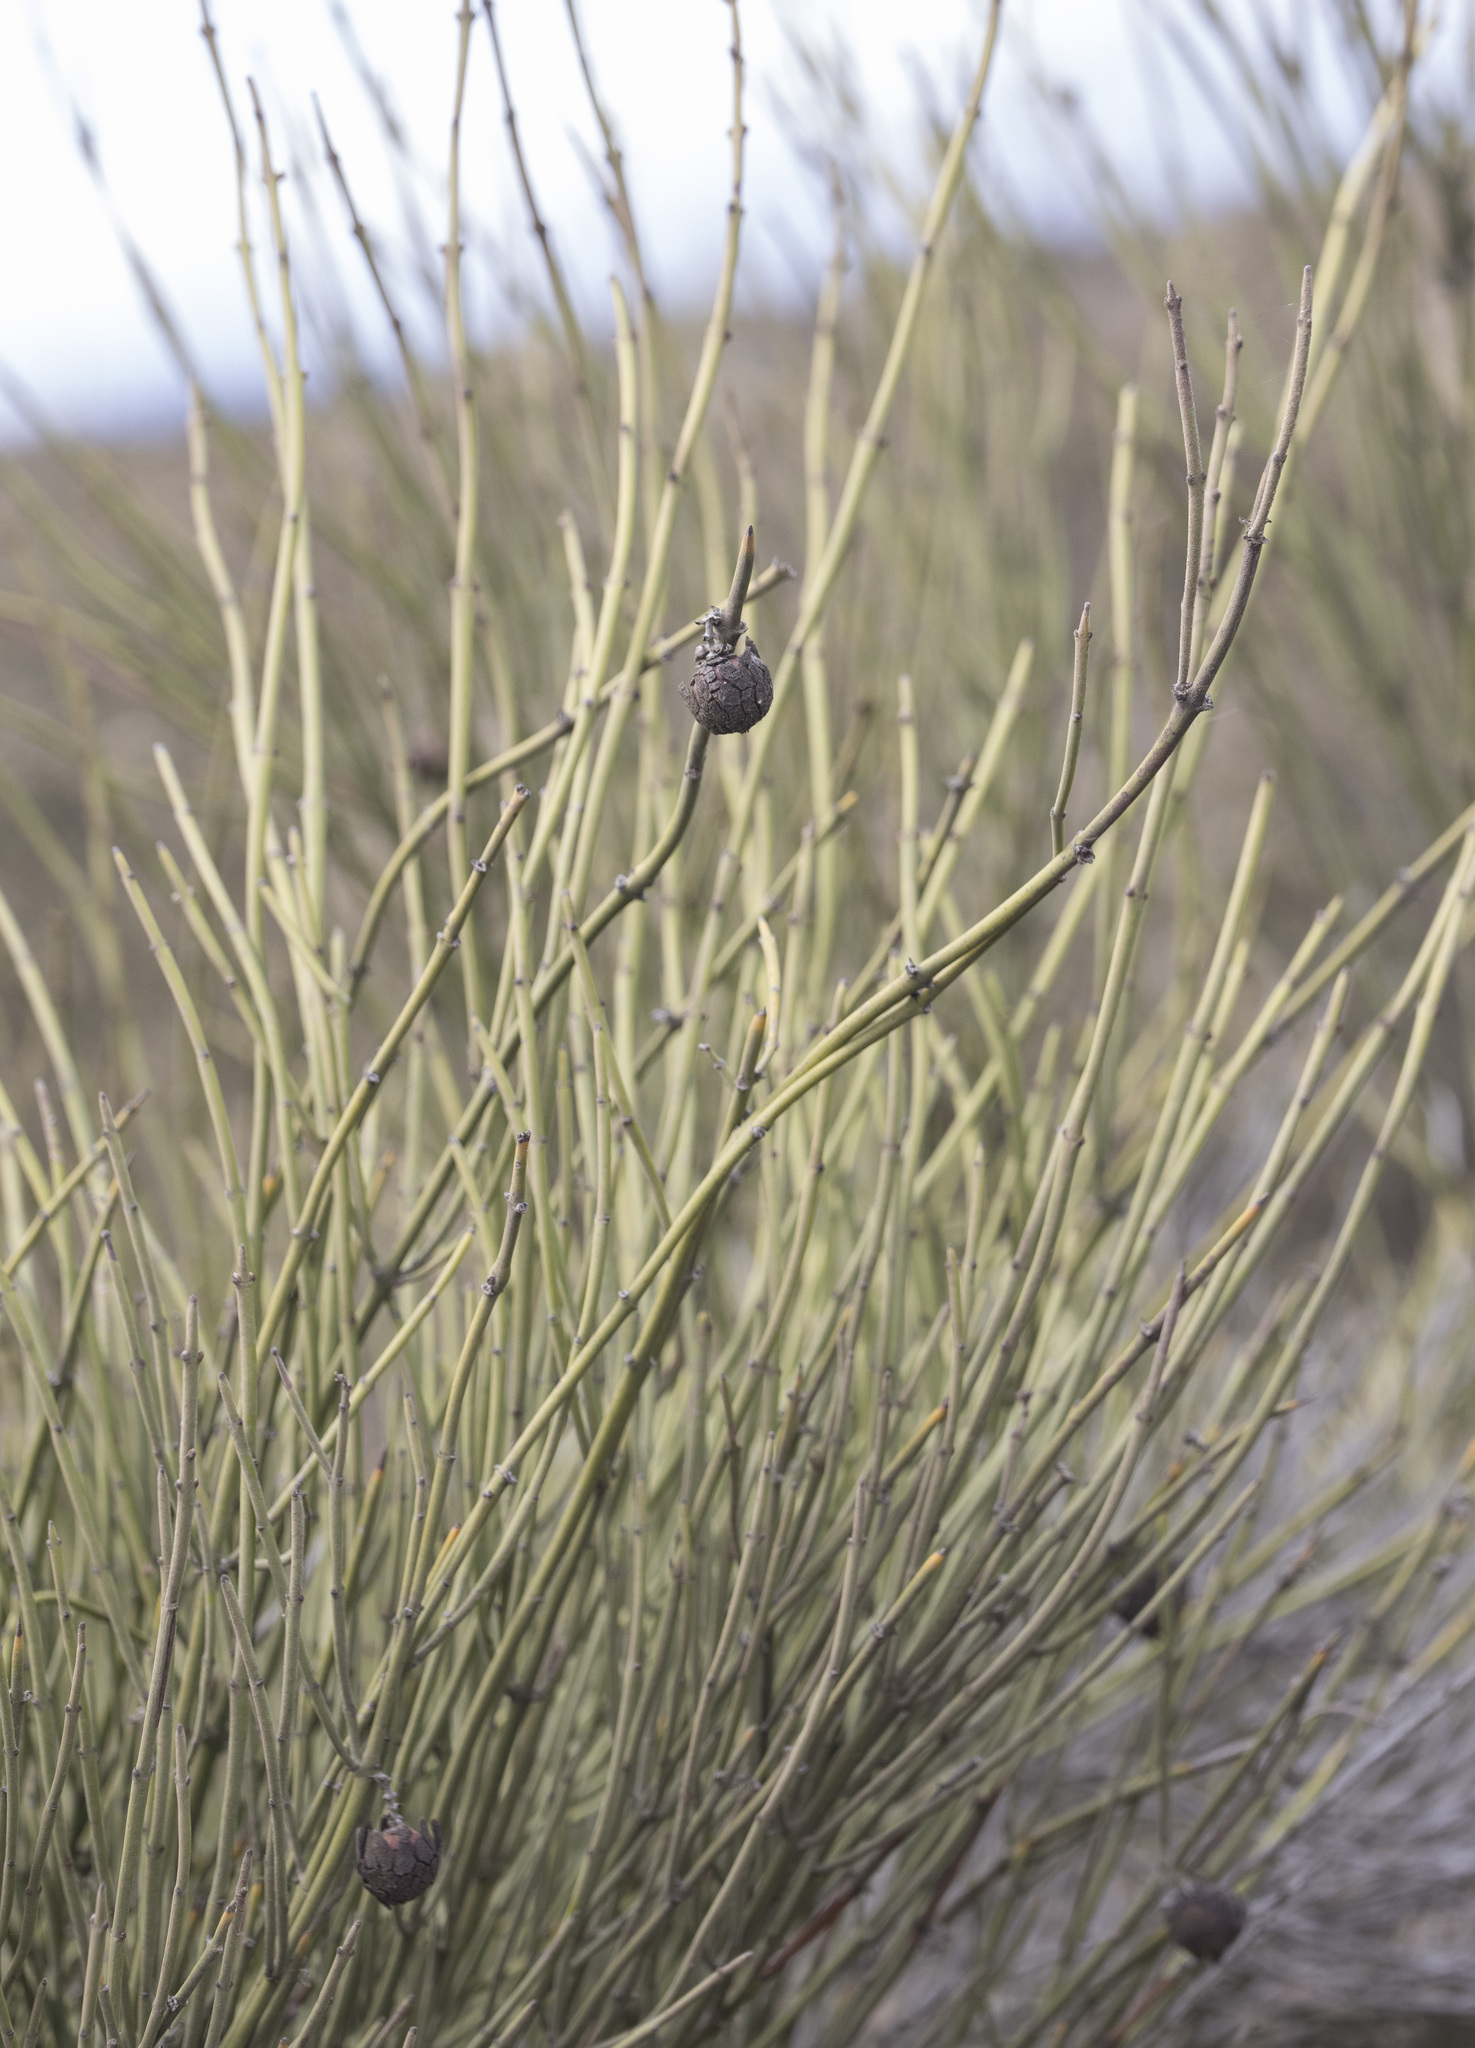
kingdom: Plantae
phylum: Tracheophyta
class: Magnoliopsida
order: Rosales
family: Rhamnaceae
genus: Retanilla
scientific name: Retanilla ephedra
